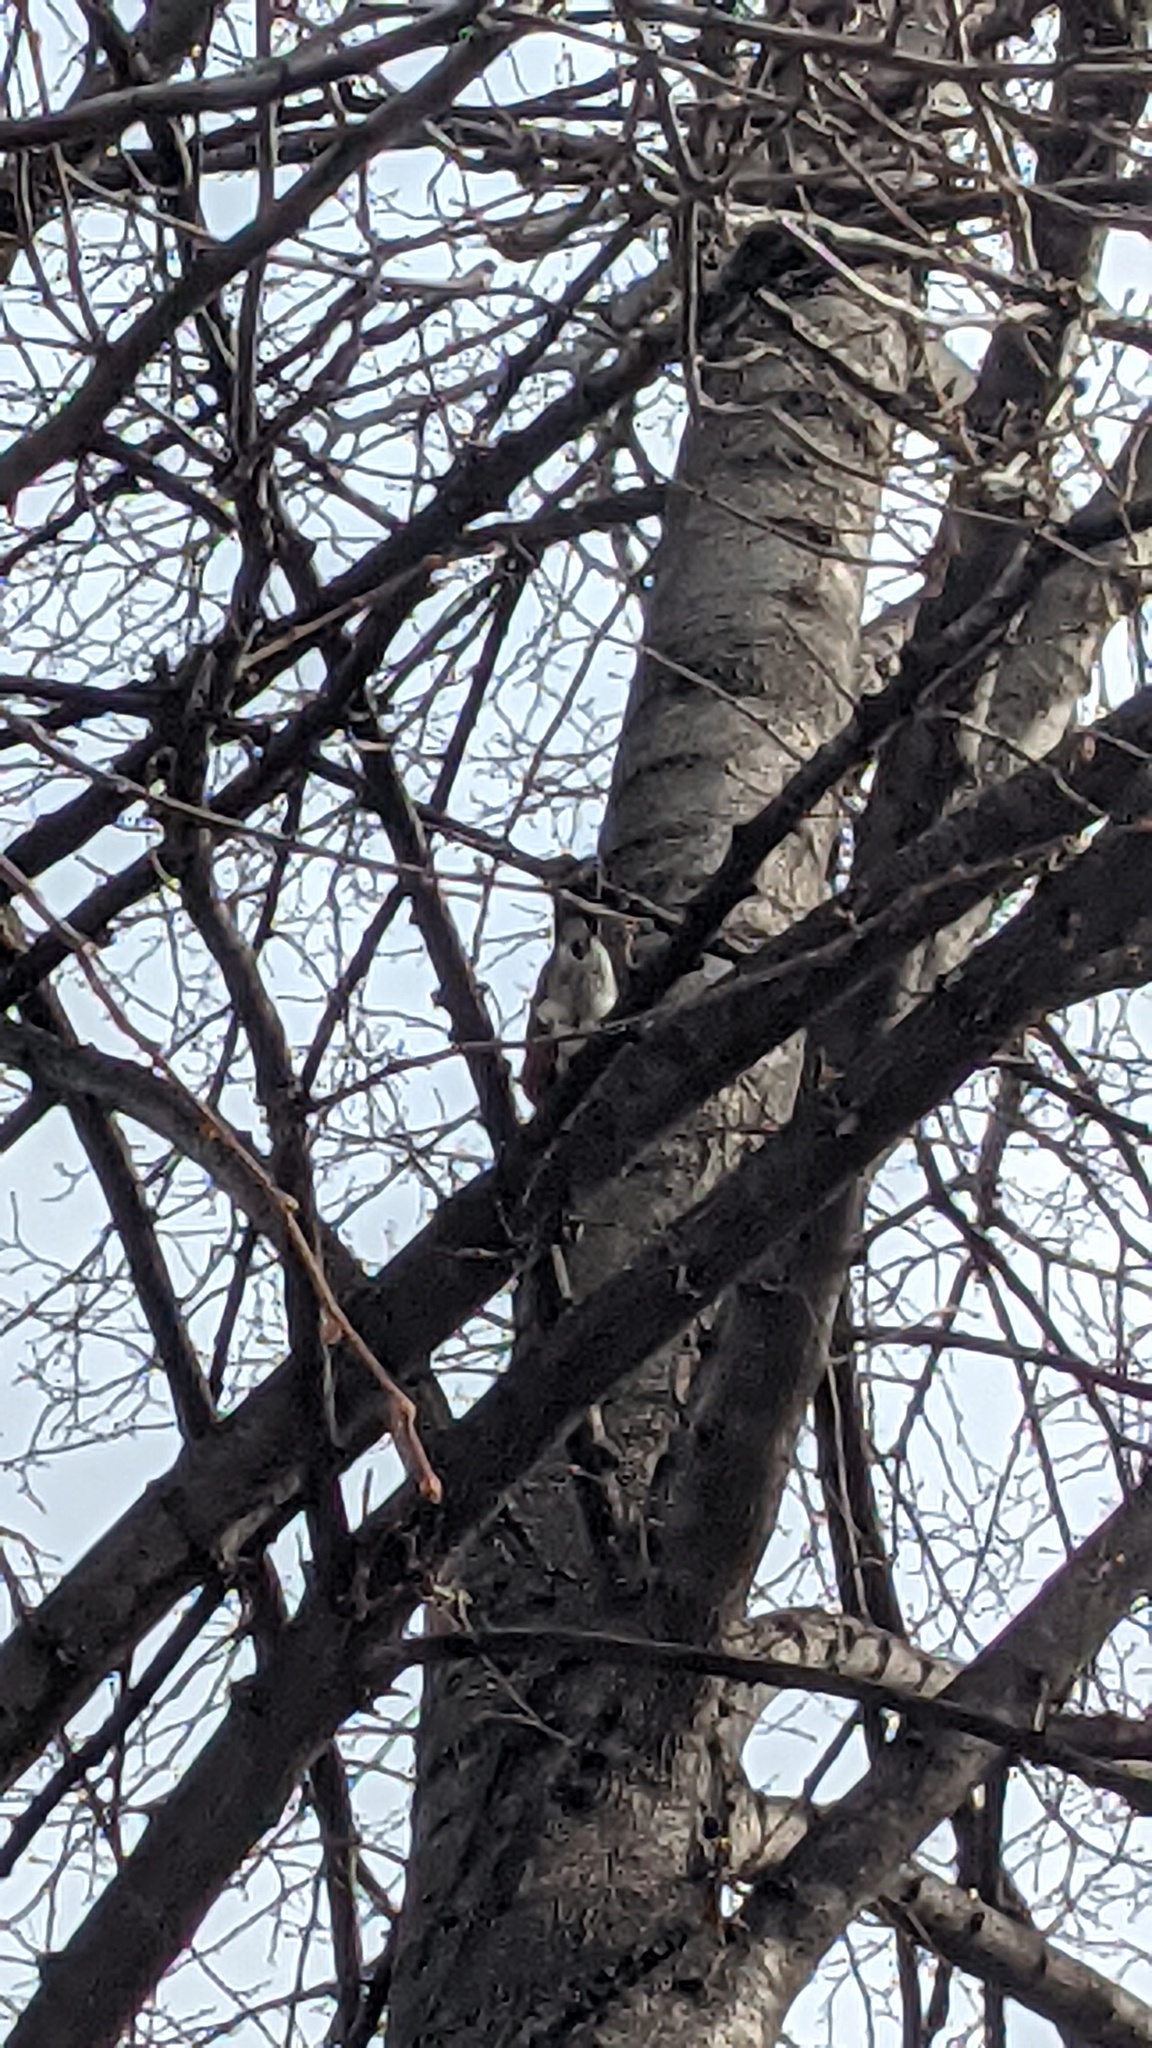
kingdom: Animalia
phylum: Chordata
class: Aves
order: Passeriformes
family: Turdidae
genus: Turdus
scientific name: Turdus migratorius
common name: American robin
